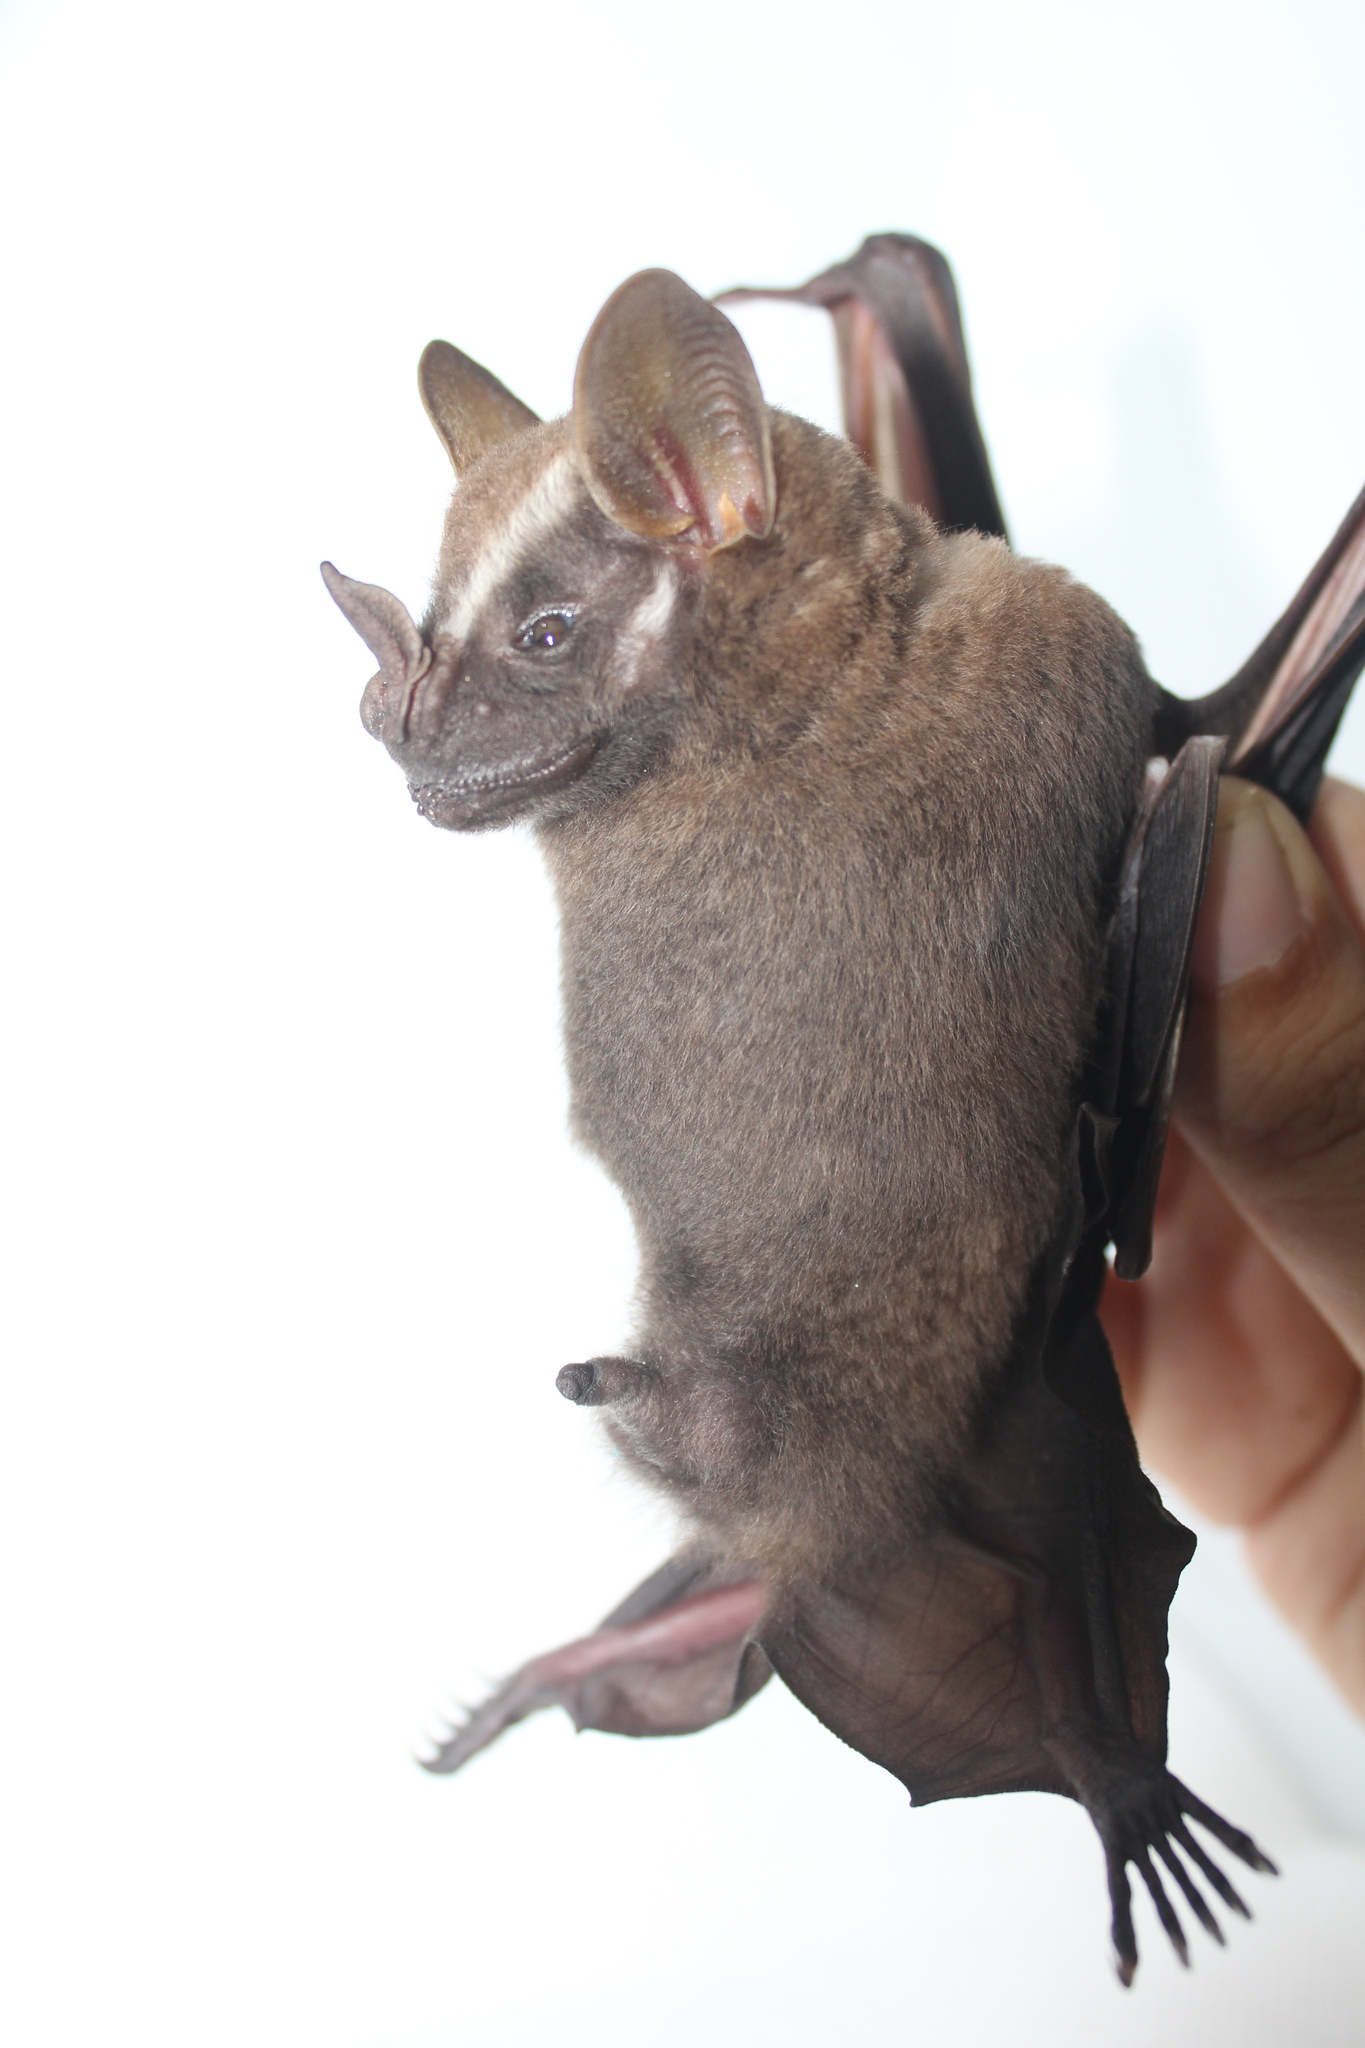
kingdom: Animalia
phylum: Chordata
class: Mammalia
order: Chiroptera
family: Phyllostomidae
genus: Artibeus
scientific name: Artibeus lituratus
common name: Great fruit-eating bat
